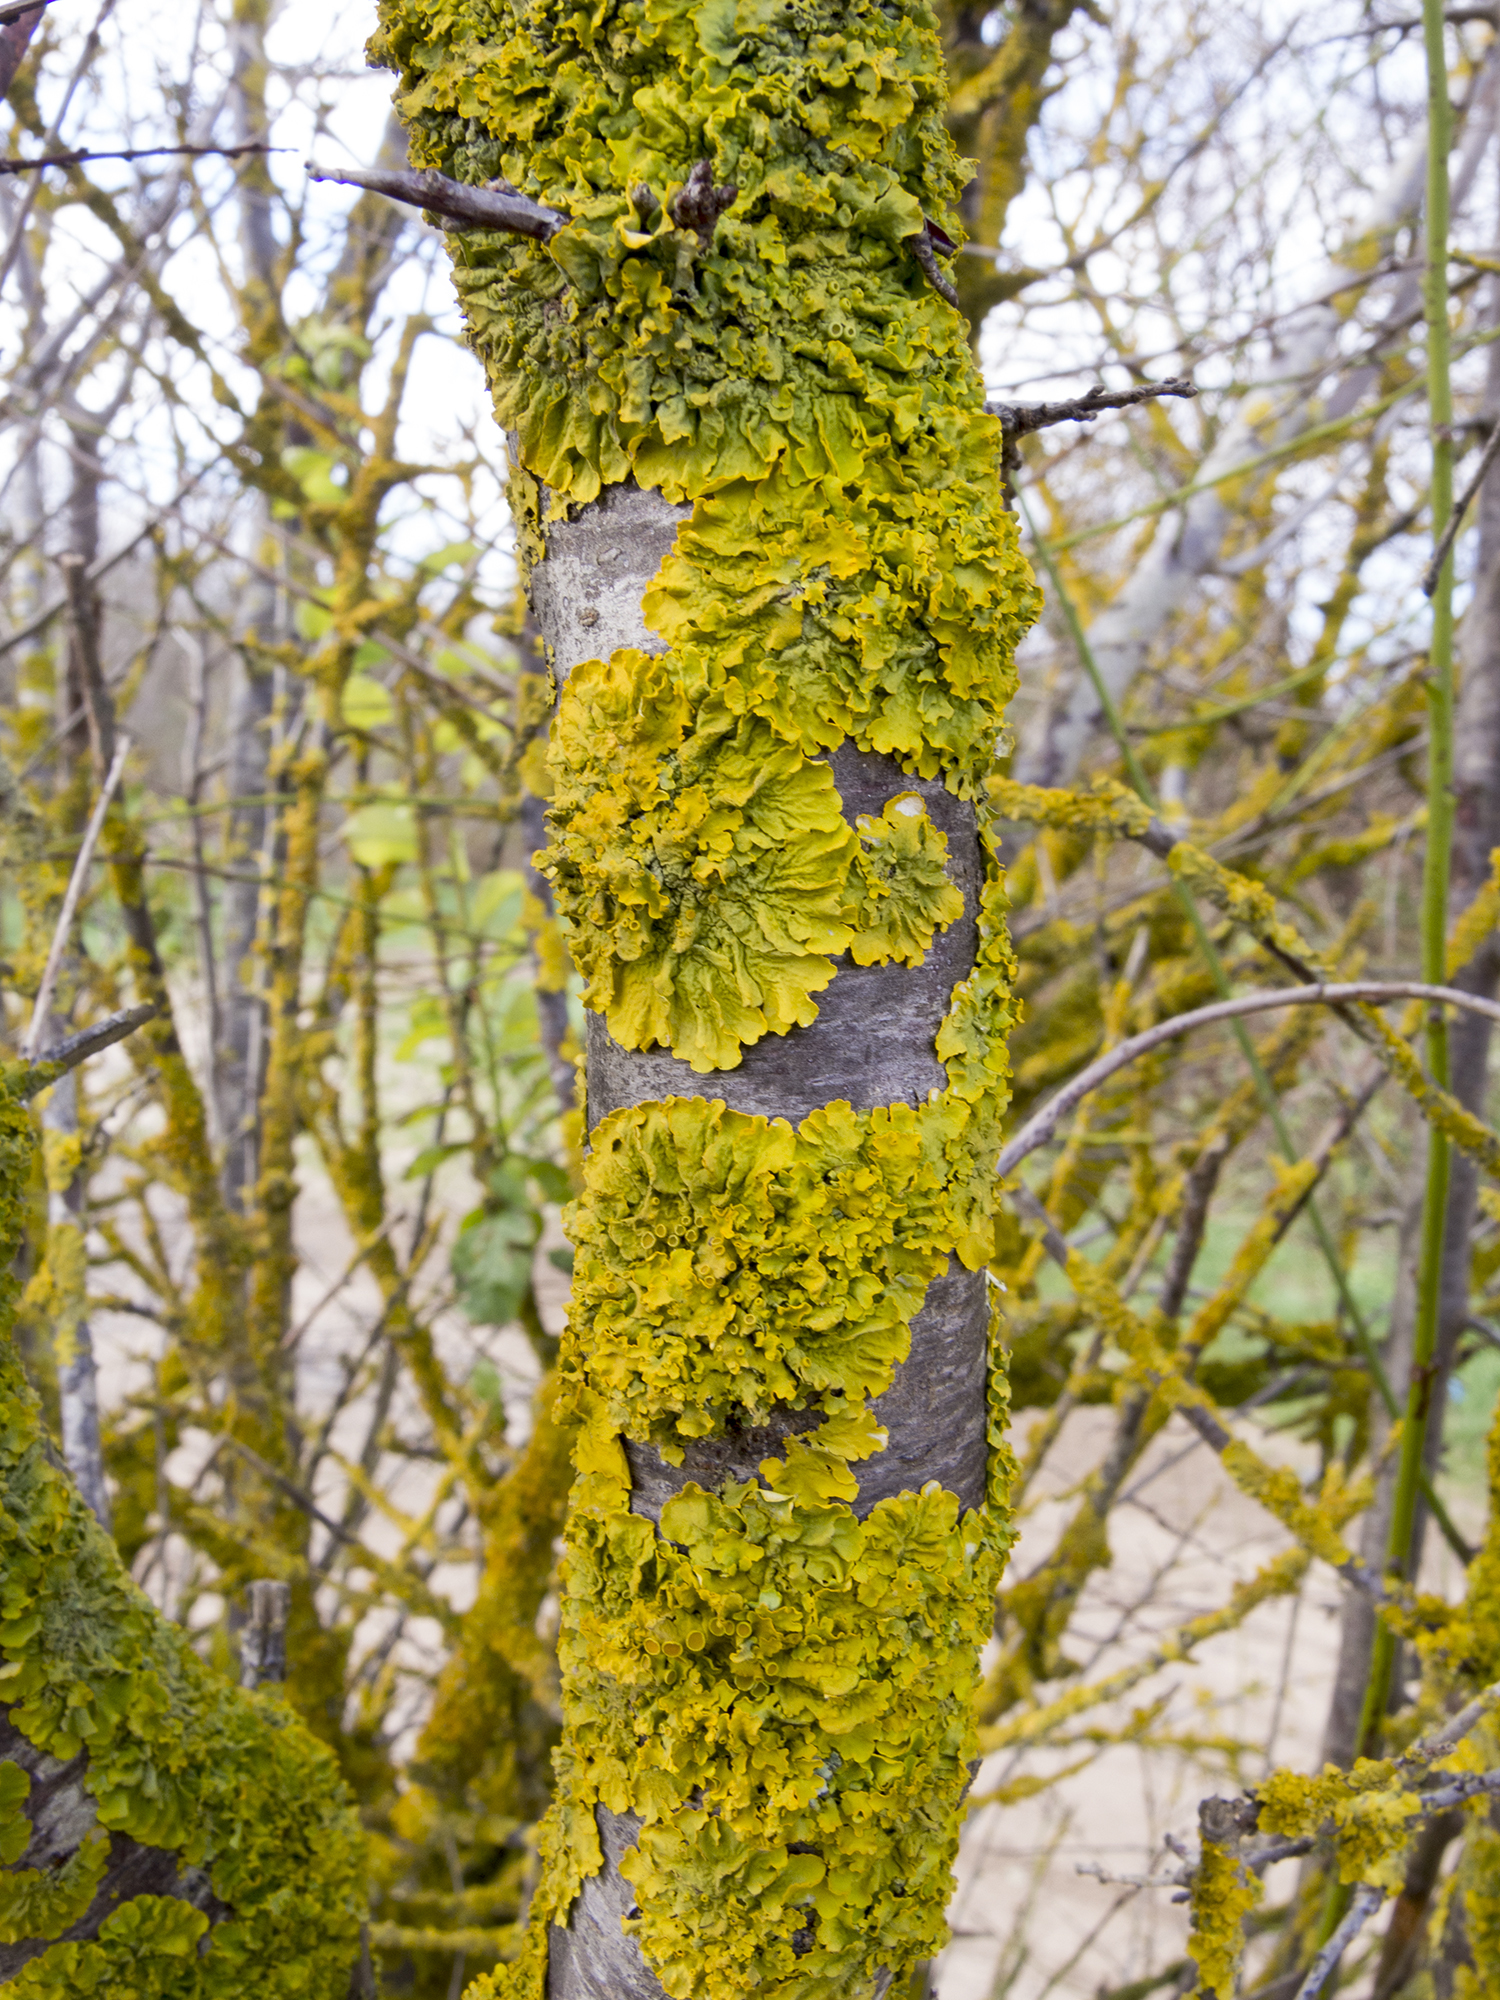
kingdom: Fungi
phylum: Ascomycota
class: Lecanoromycetes
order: Teloschistales
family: Teloschistaceae
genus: Xanthoria
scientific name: Xanthoria parietina
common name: Common orange lichen
